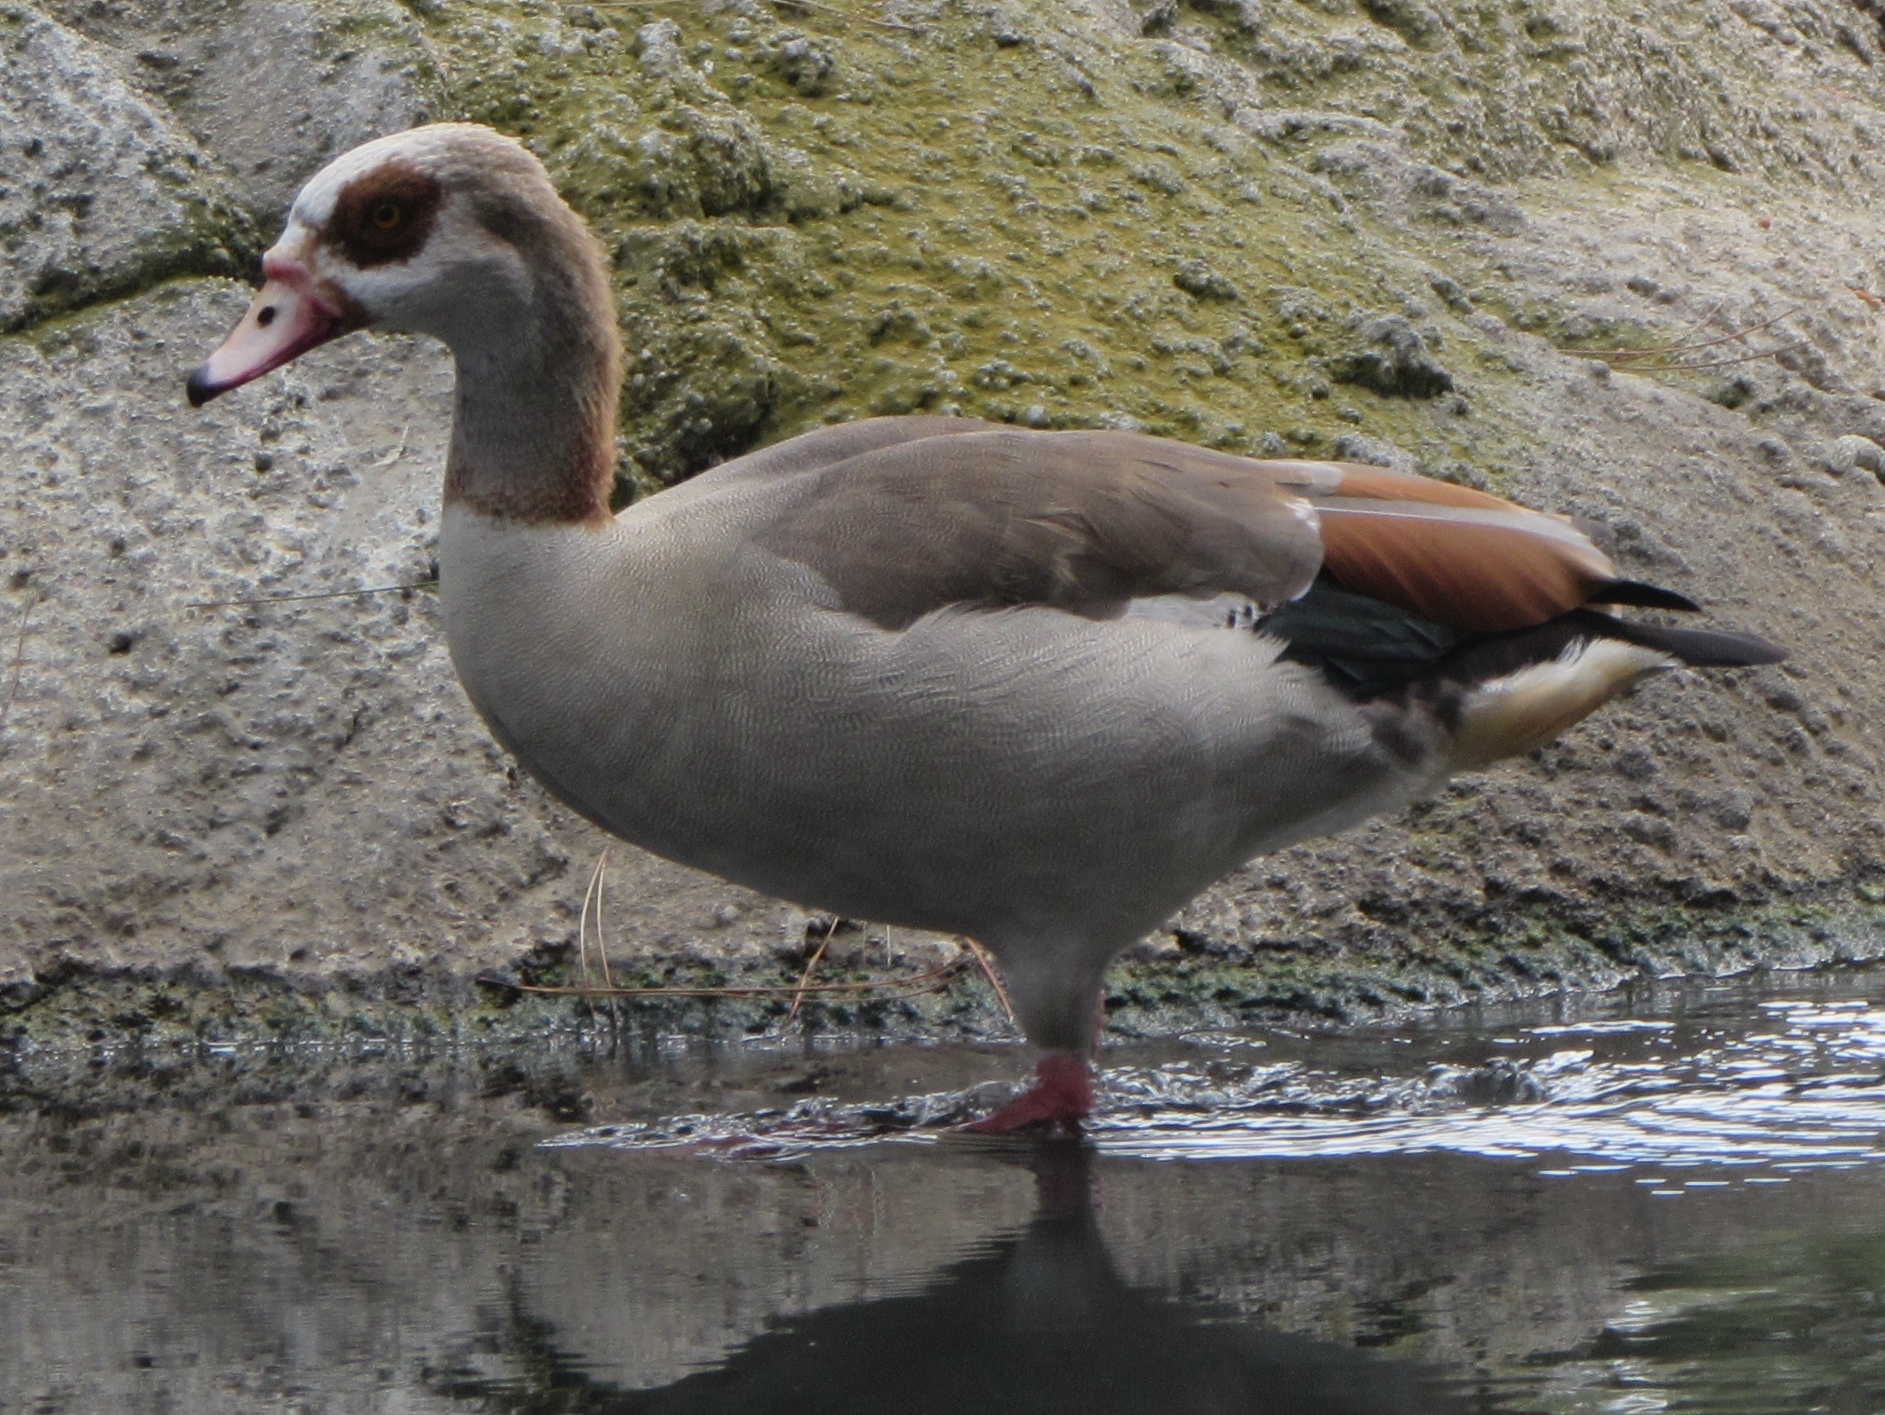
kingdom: Animalia
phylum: Chordata
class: Aves
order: Anseriformes
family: Anatidae
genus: Alopochen
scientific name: Alopochen aegyptiaca
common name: Egyptian goose
